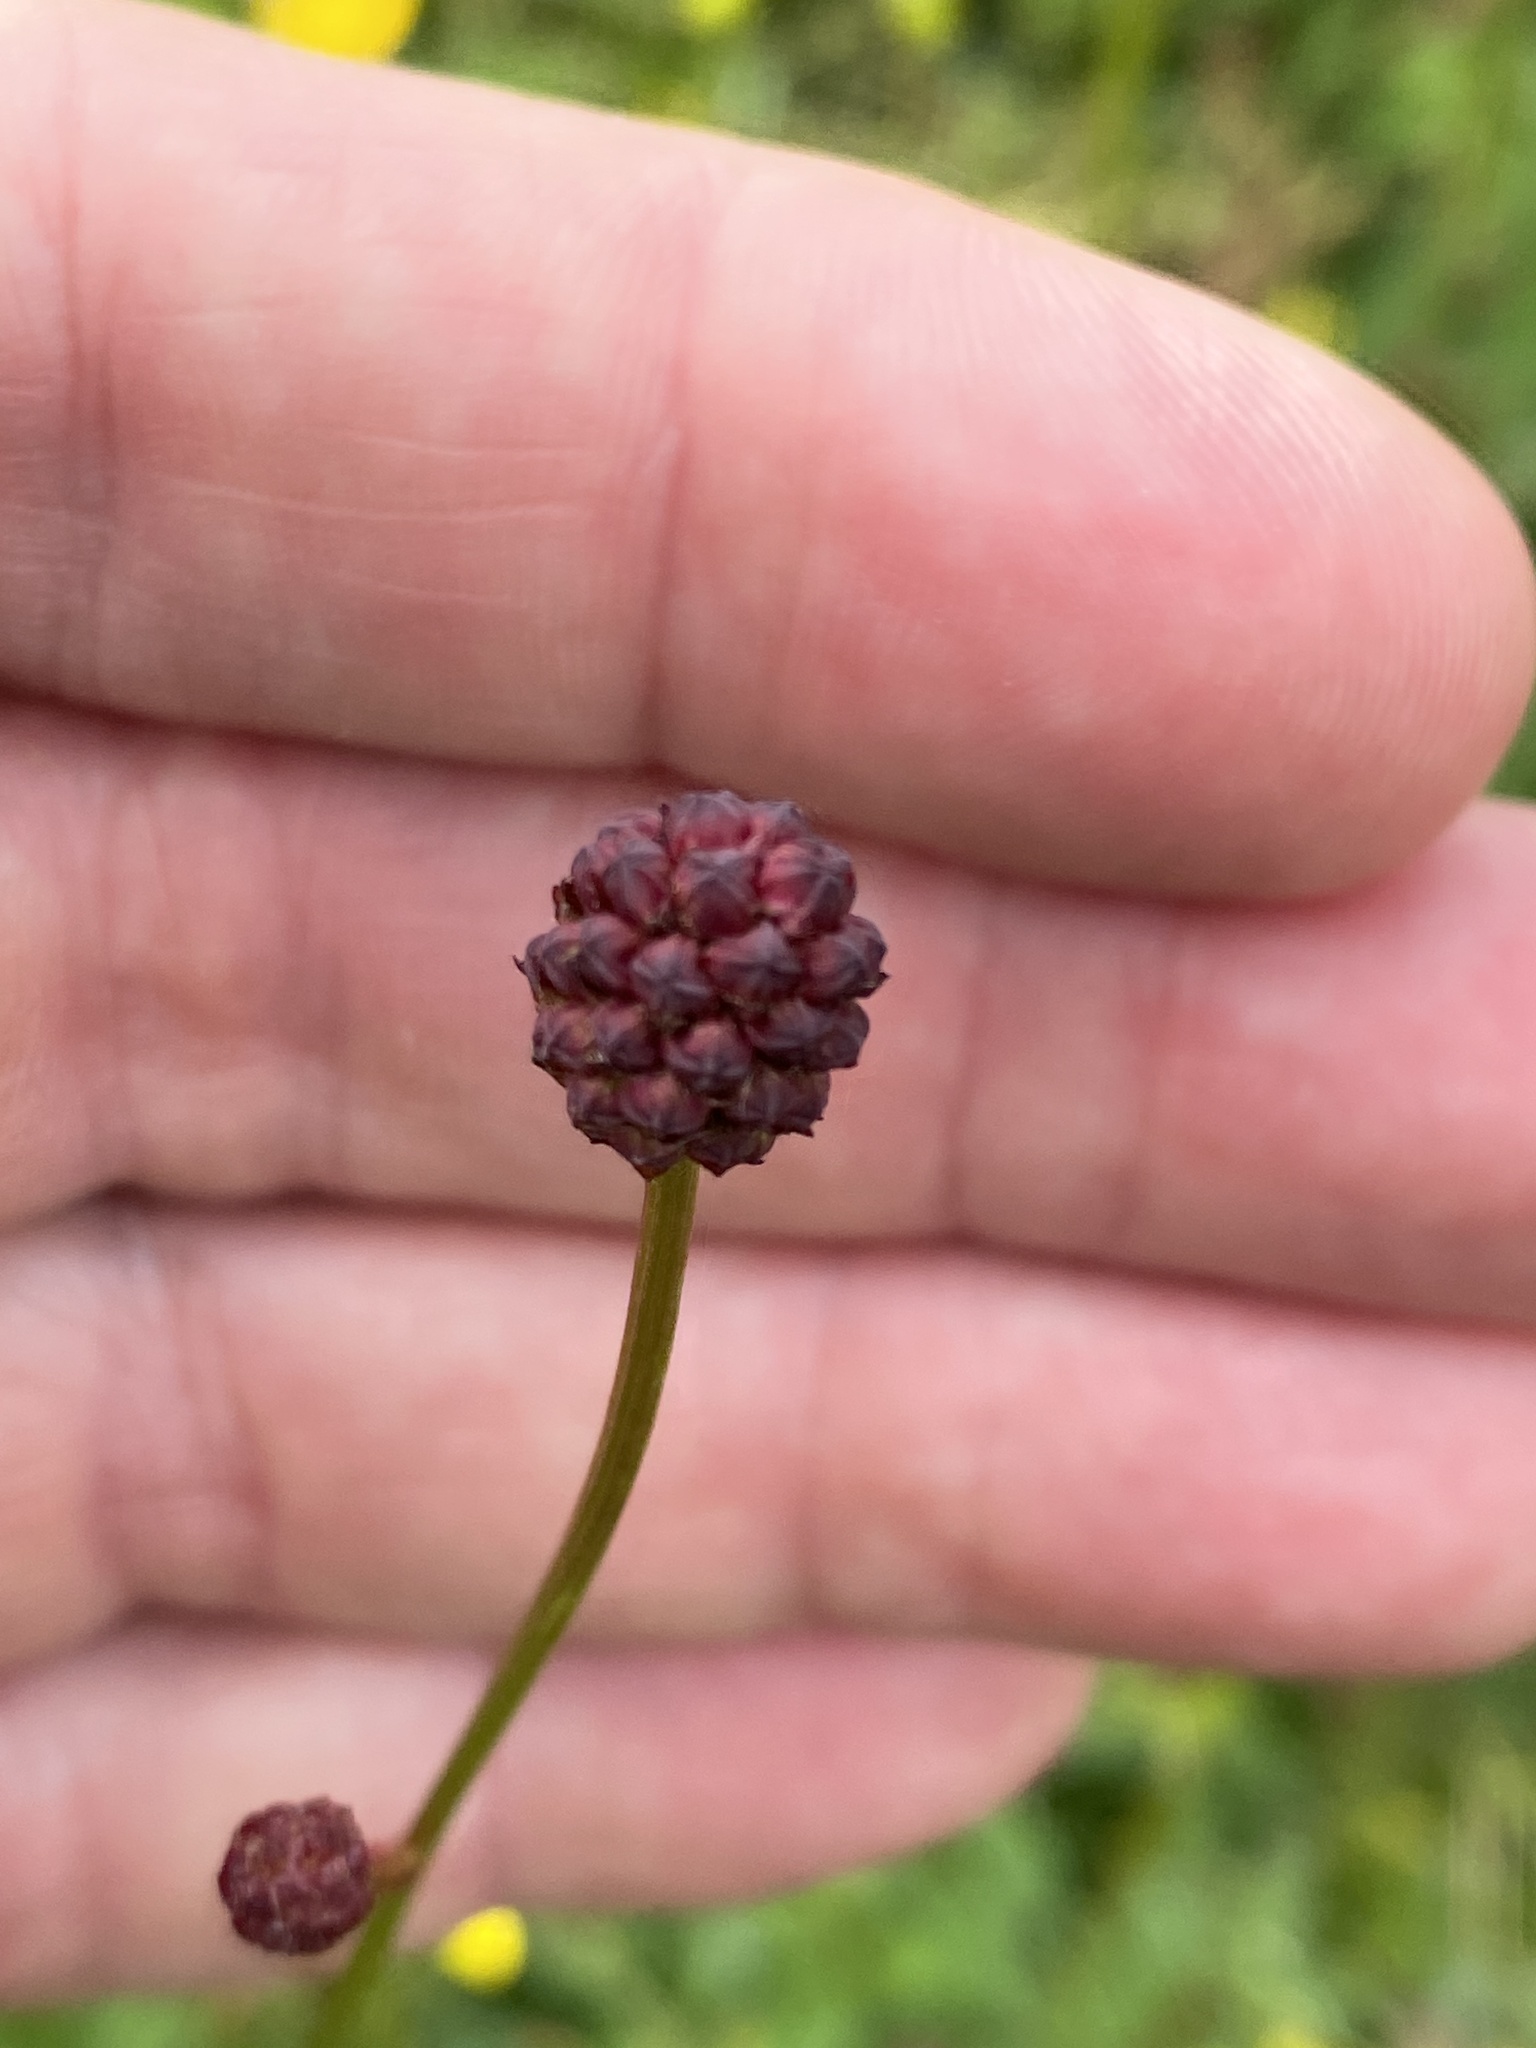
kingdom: Plantae
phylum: Tracheophyta
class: Magnoliopsida
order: Rosales
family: Rosaceae
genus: Sanguisorba
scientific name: Sanguisorba officinalis
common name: Great burnet
